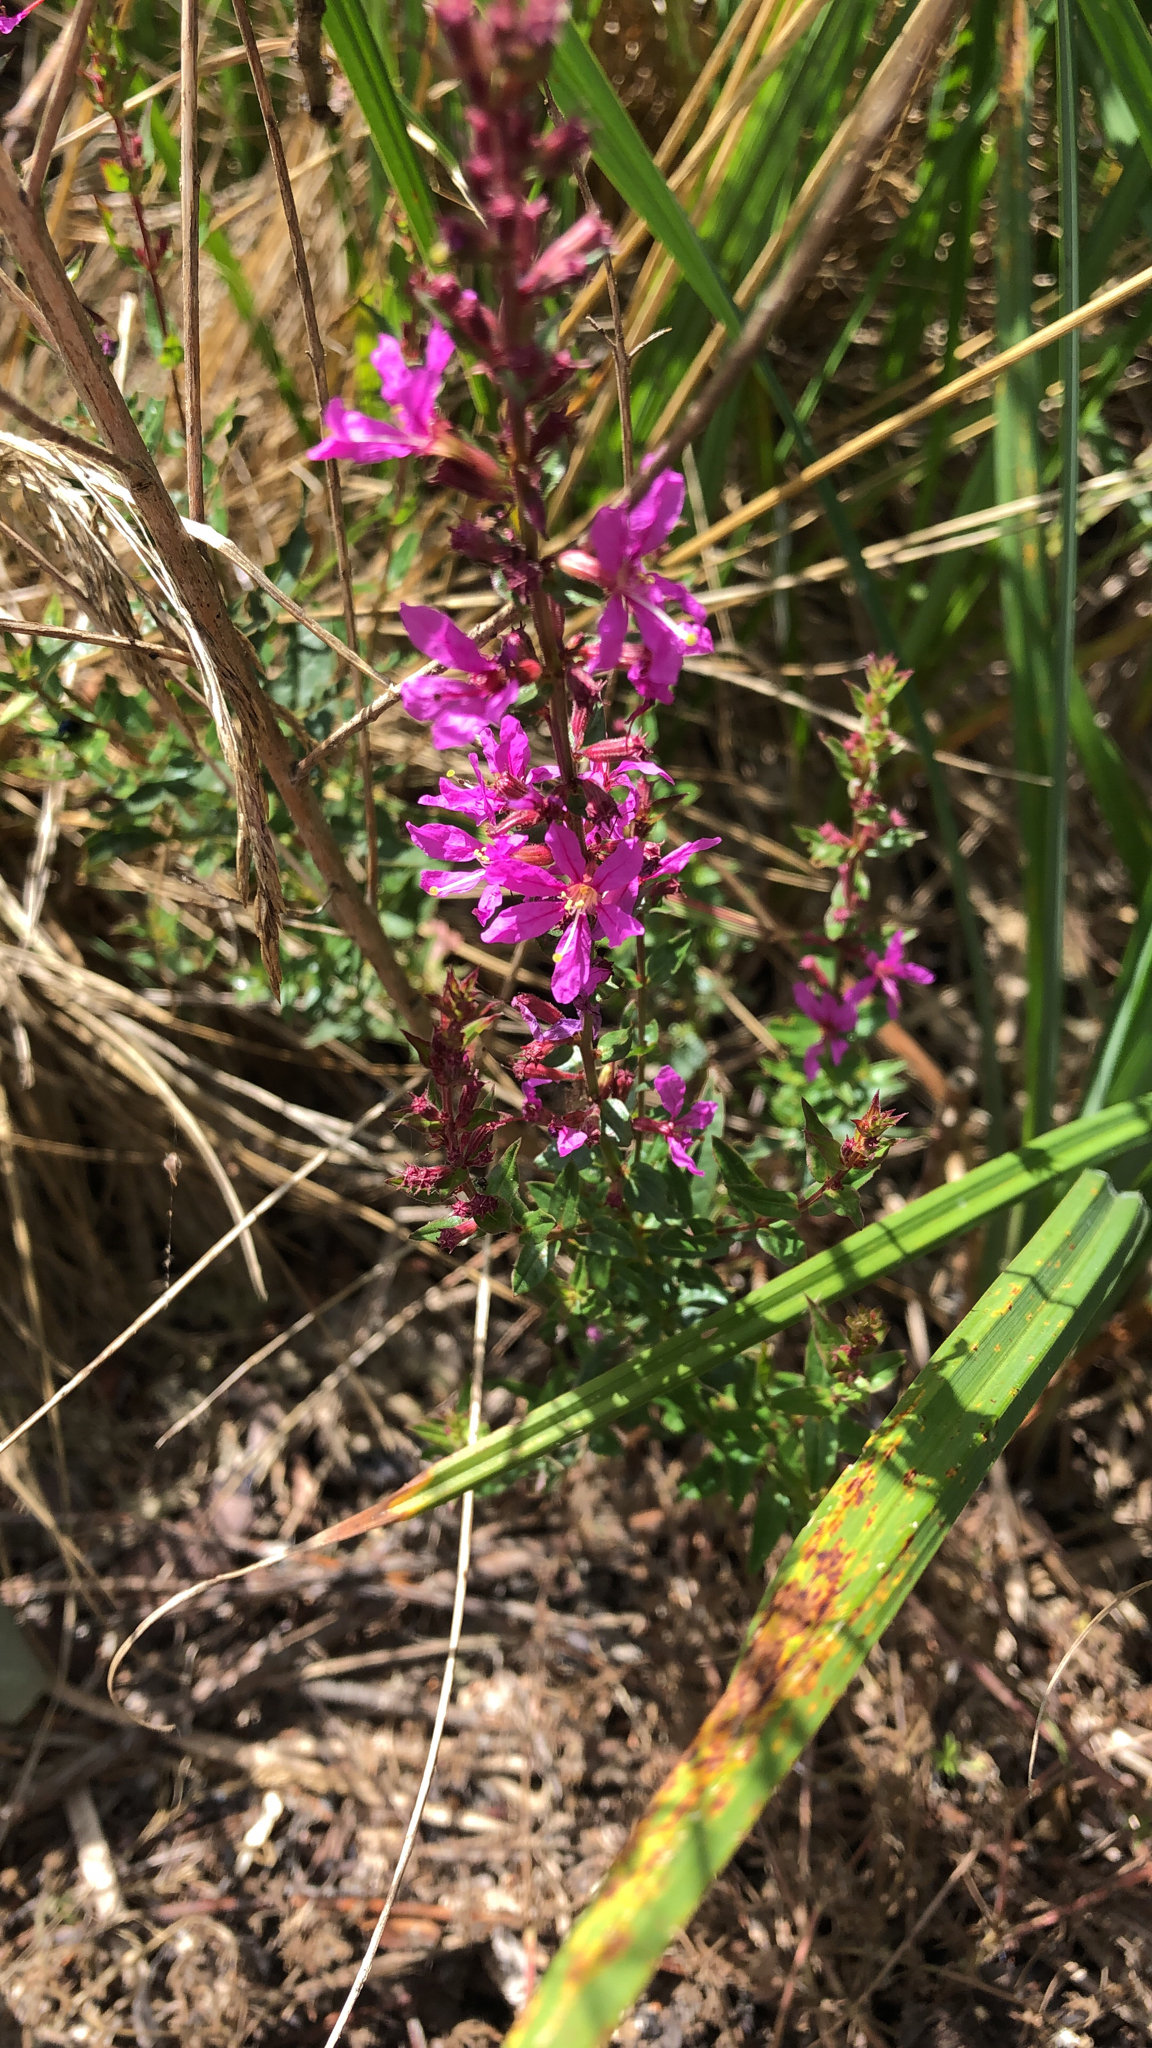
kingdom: Plantae
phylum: Tracheophyta
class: Magnoliopsida
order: Myrtales
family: Lythraceae
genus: Lythrum
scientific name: Lythrum salicaria
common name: Purple loosestrife
